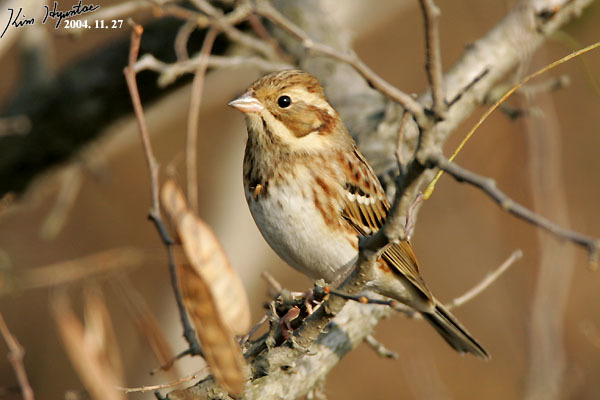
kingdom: Animalia
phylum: Chordata
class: Aves
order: Passeriformes
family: Emberizidae
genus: Emberiza
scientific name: Emberiza rustica
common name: Rustic bunting
